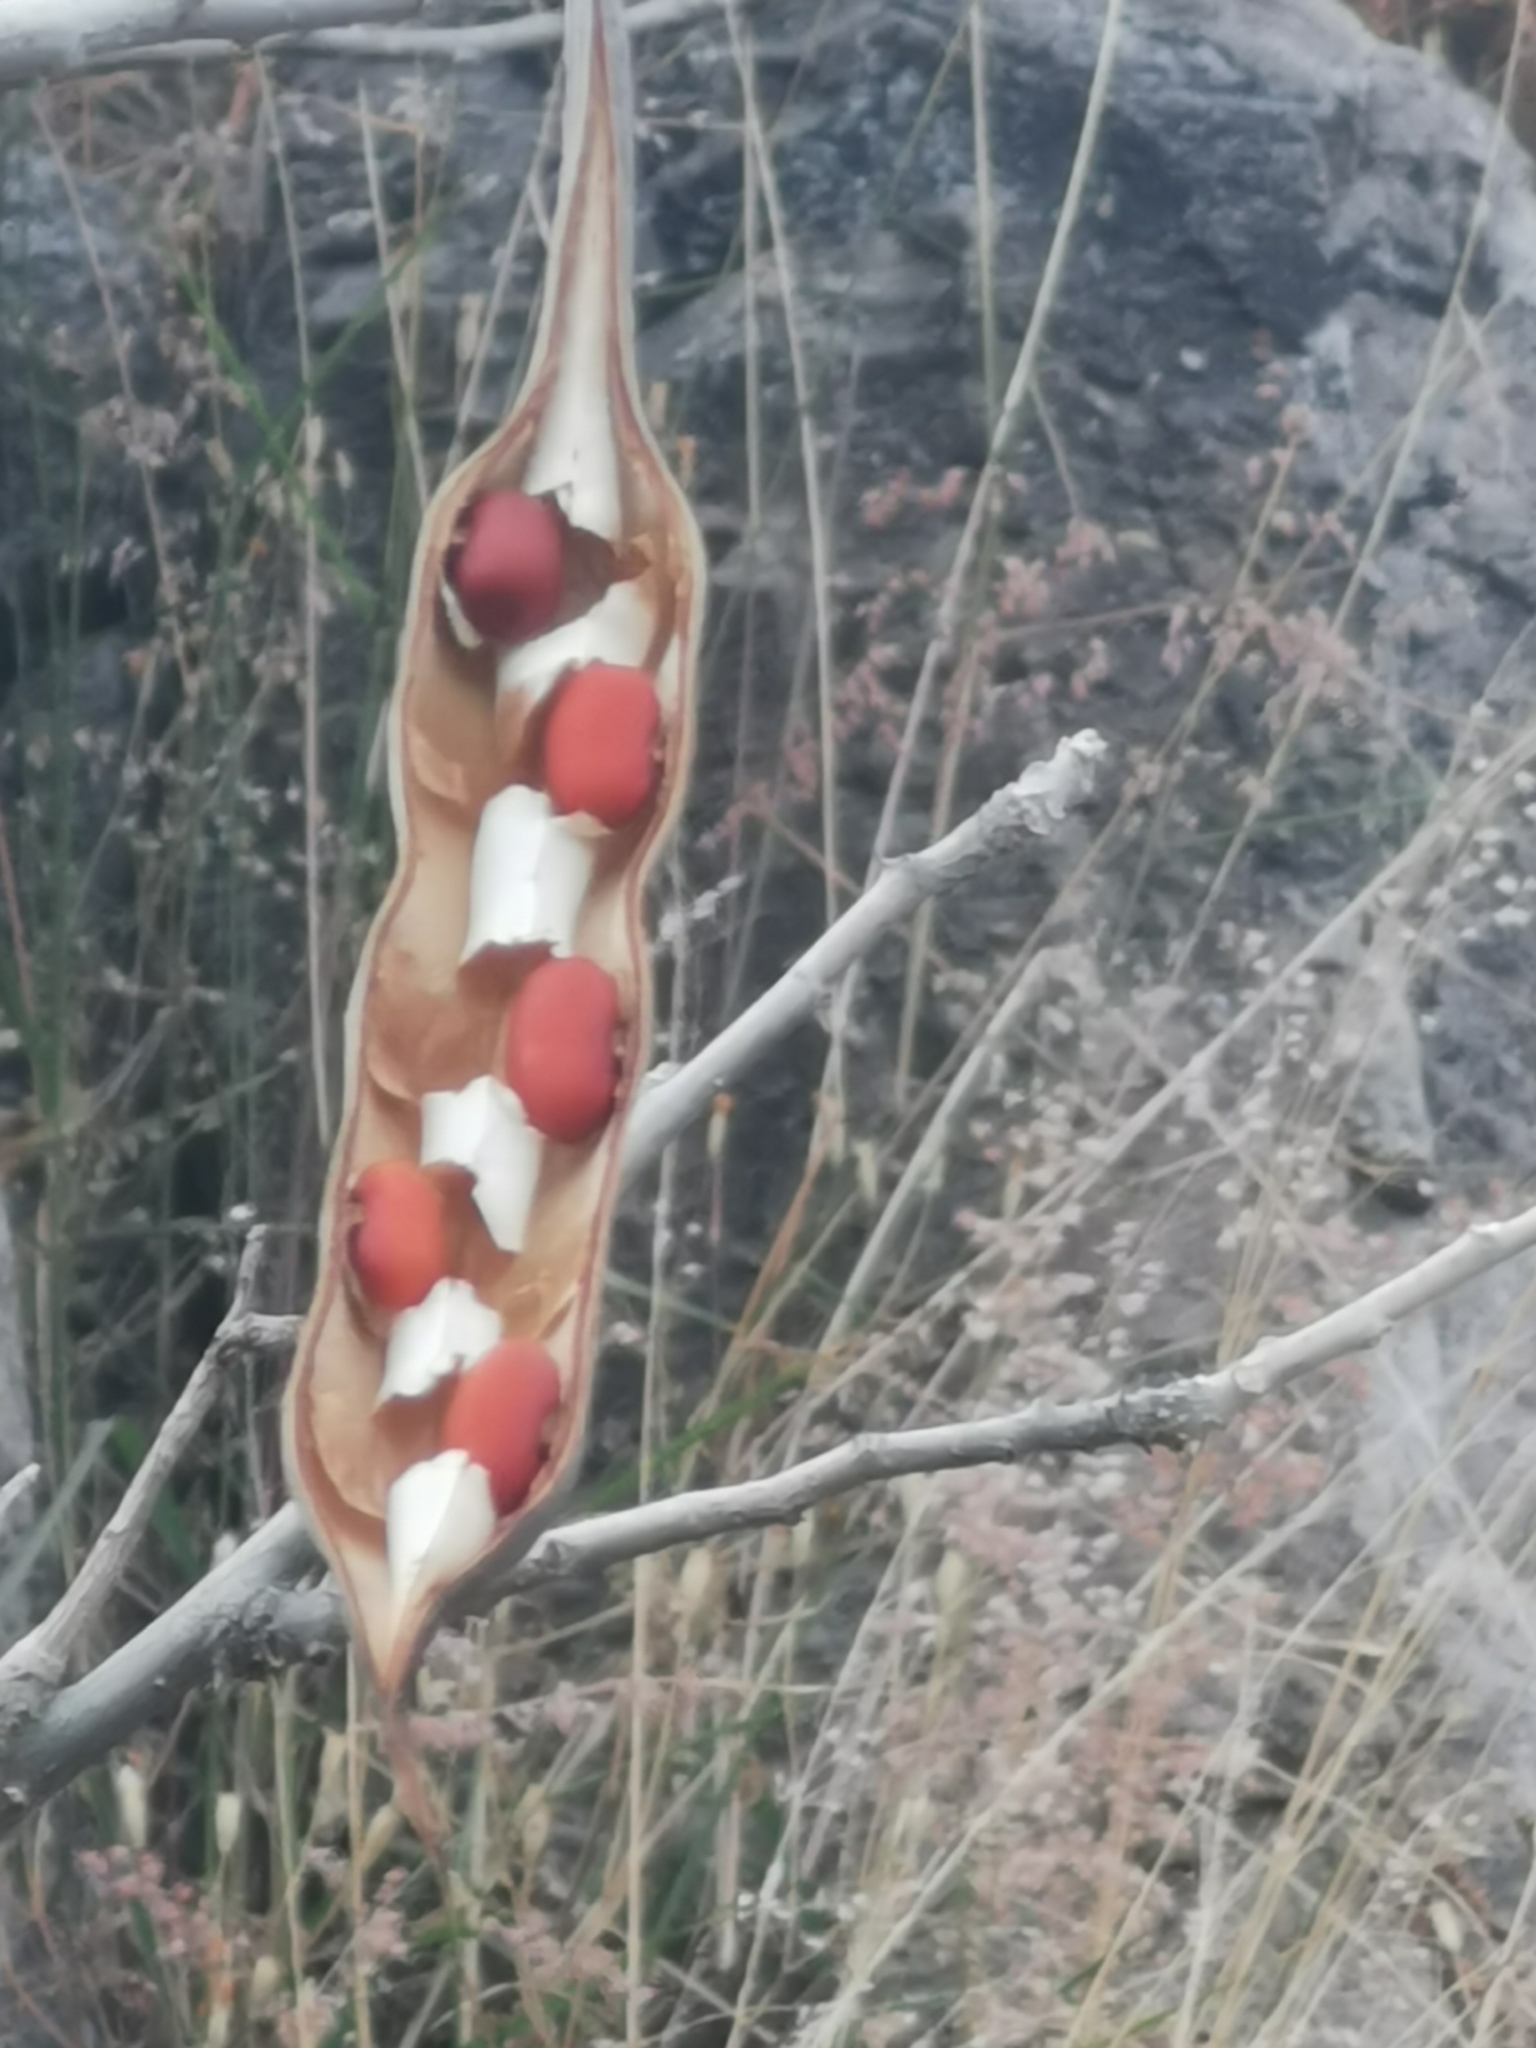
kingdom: Plantae
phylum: Tracheophyta
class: Magnoliopsida
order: Fabales
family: Fabaceae
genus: Erythrina
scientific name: Erythrina flabelliformis
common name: Chilicote
